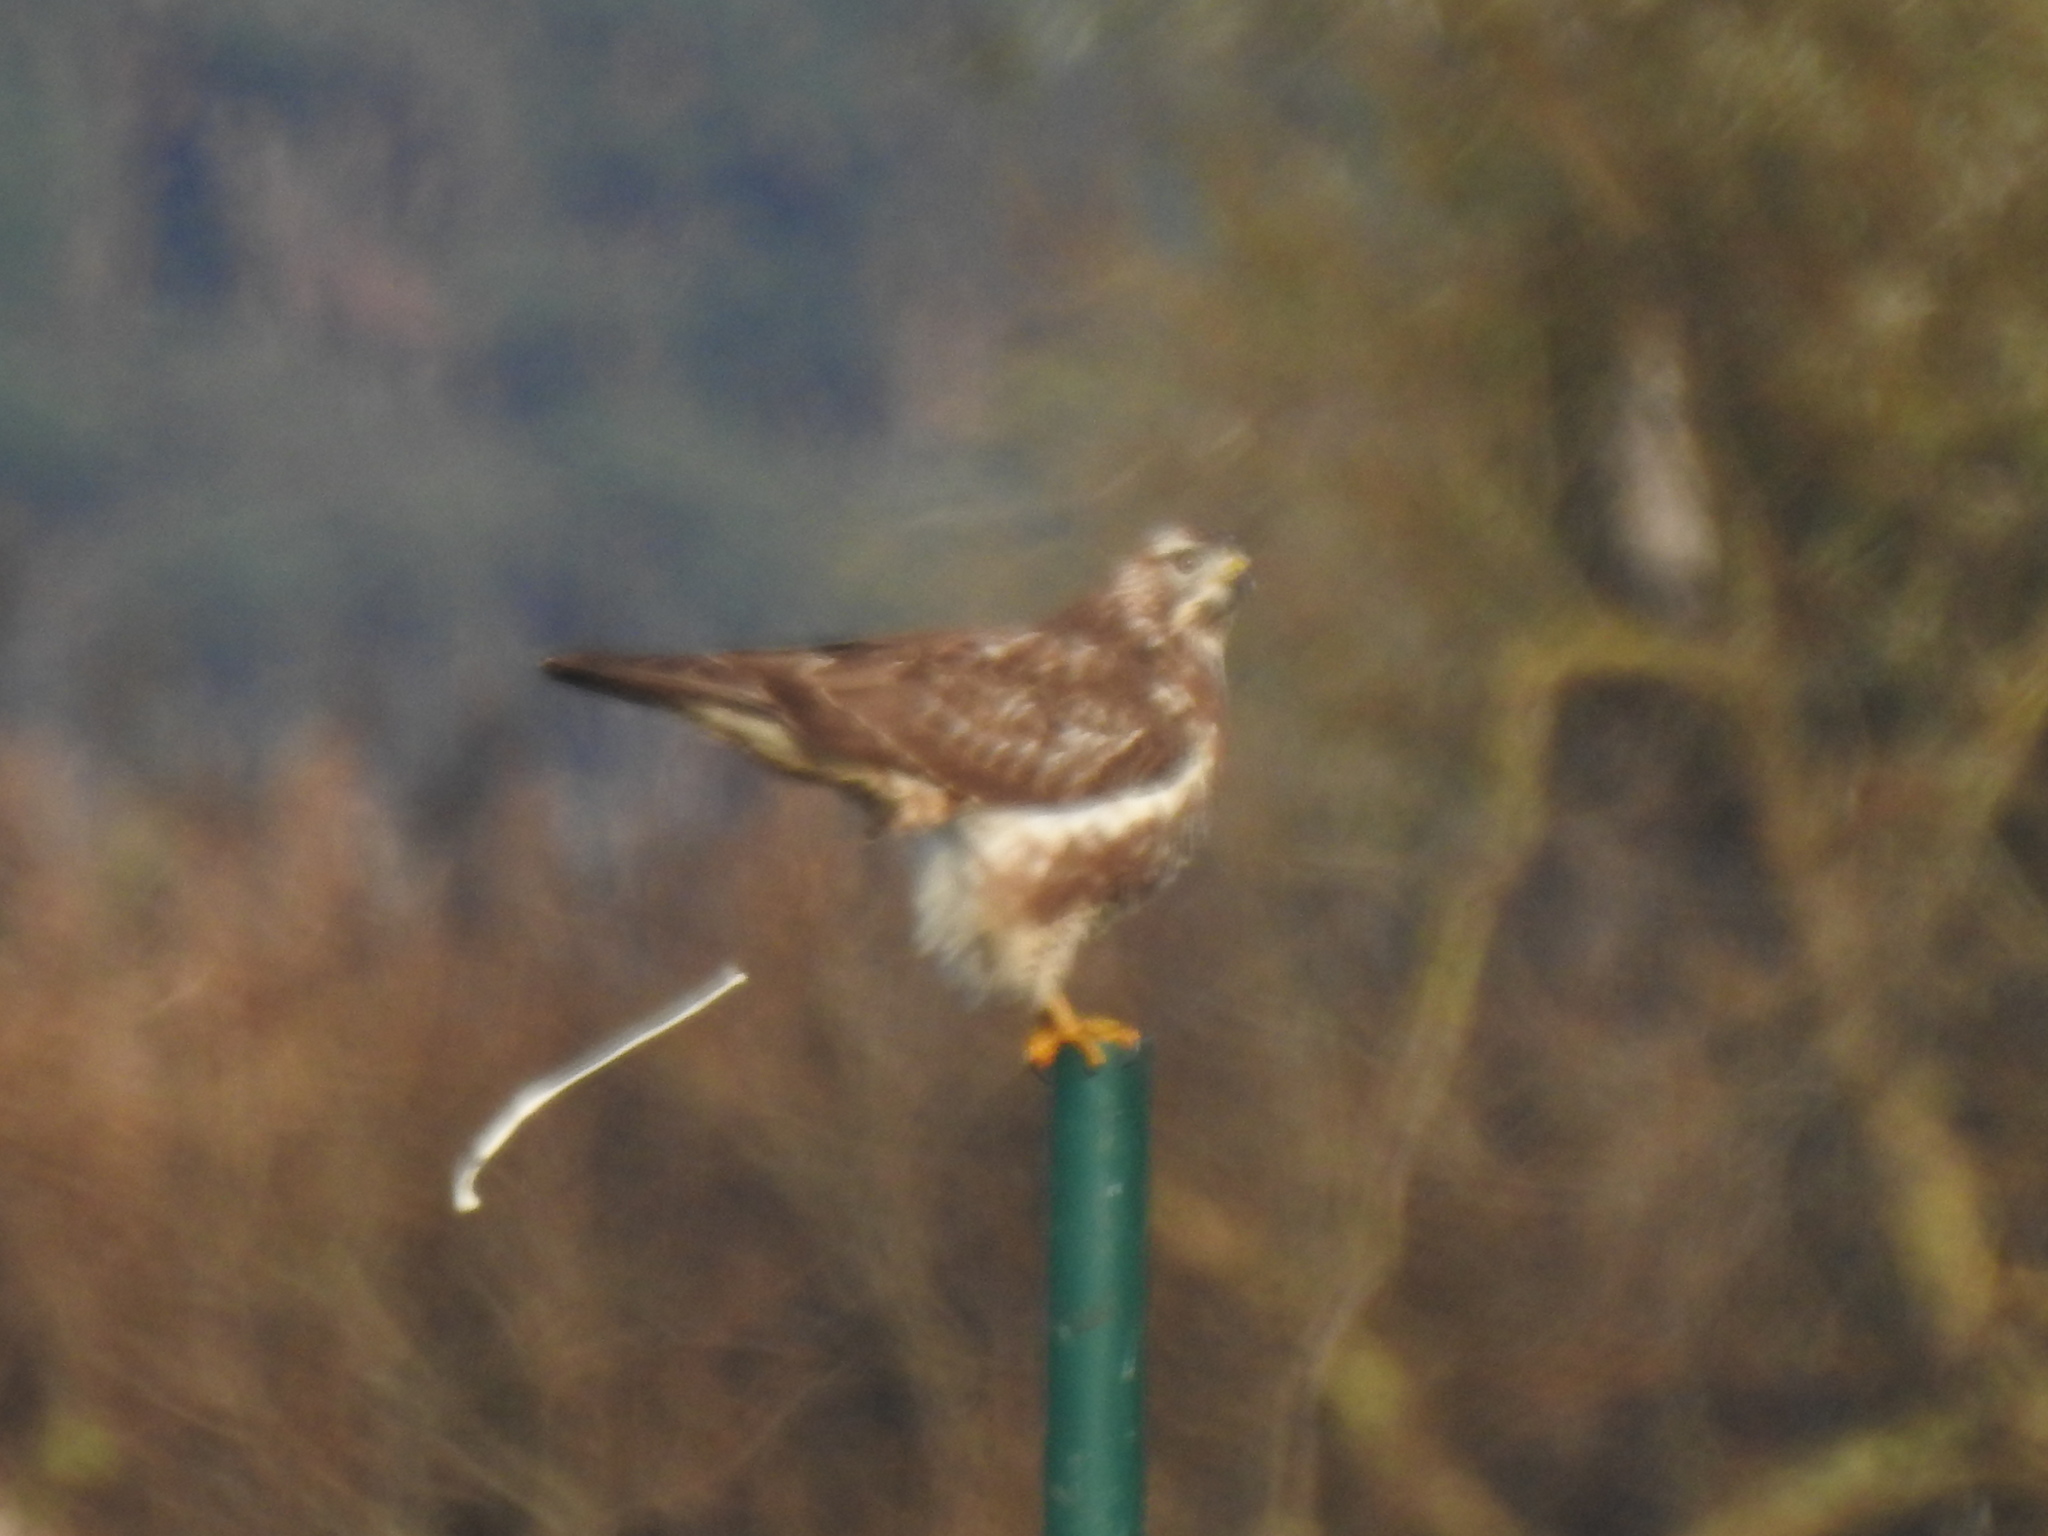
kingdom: Animalia
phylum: Chordata
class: Aves
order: Accipitriformes
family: Accipitridae
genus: Buteo
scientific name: Buteo buteo
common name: Common buzzard
